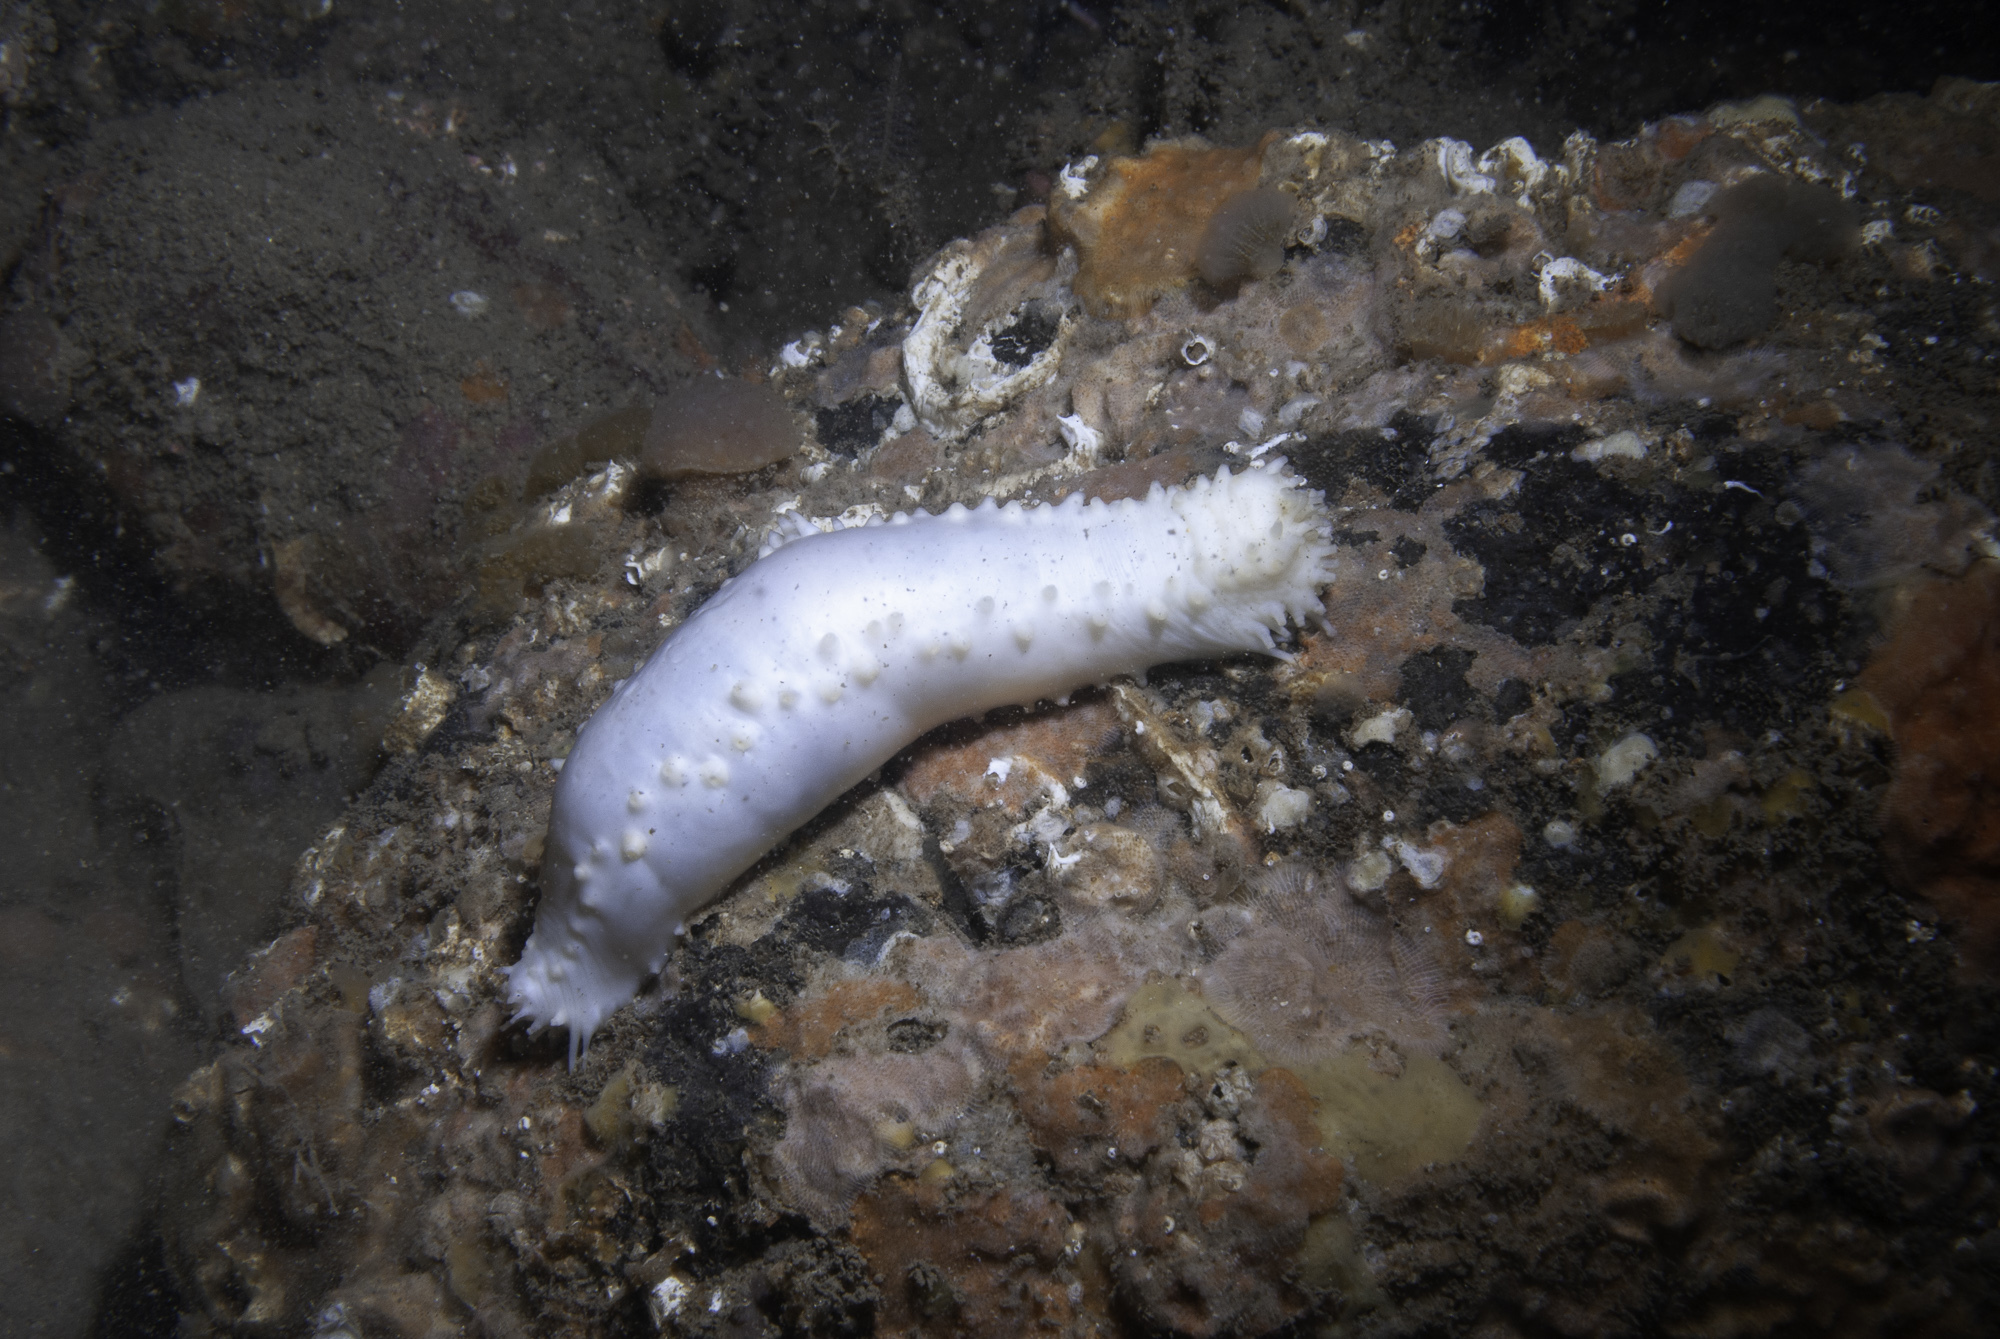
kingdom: Animalia
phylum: Echinodermata
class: Holothuroidea
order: Dendrochirotida
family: Cucumariidae
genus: Pawsonia
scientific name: Pawsonia saxicola
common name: Sea gherkin
